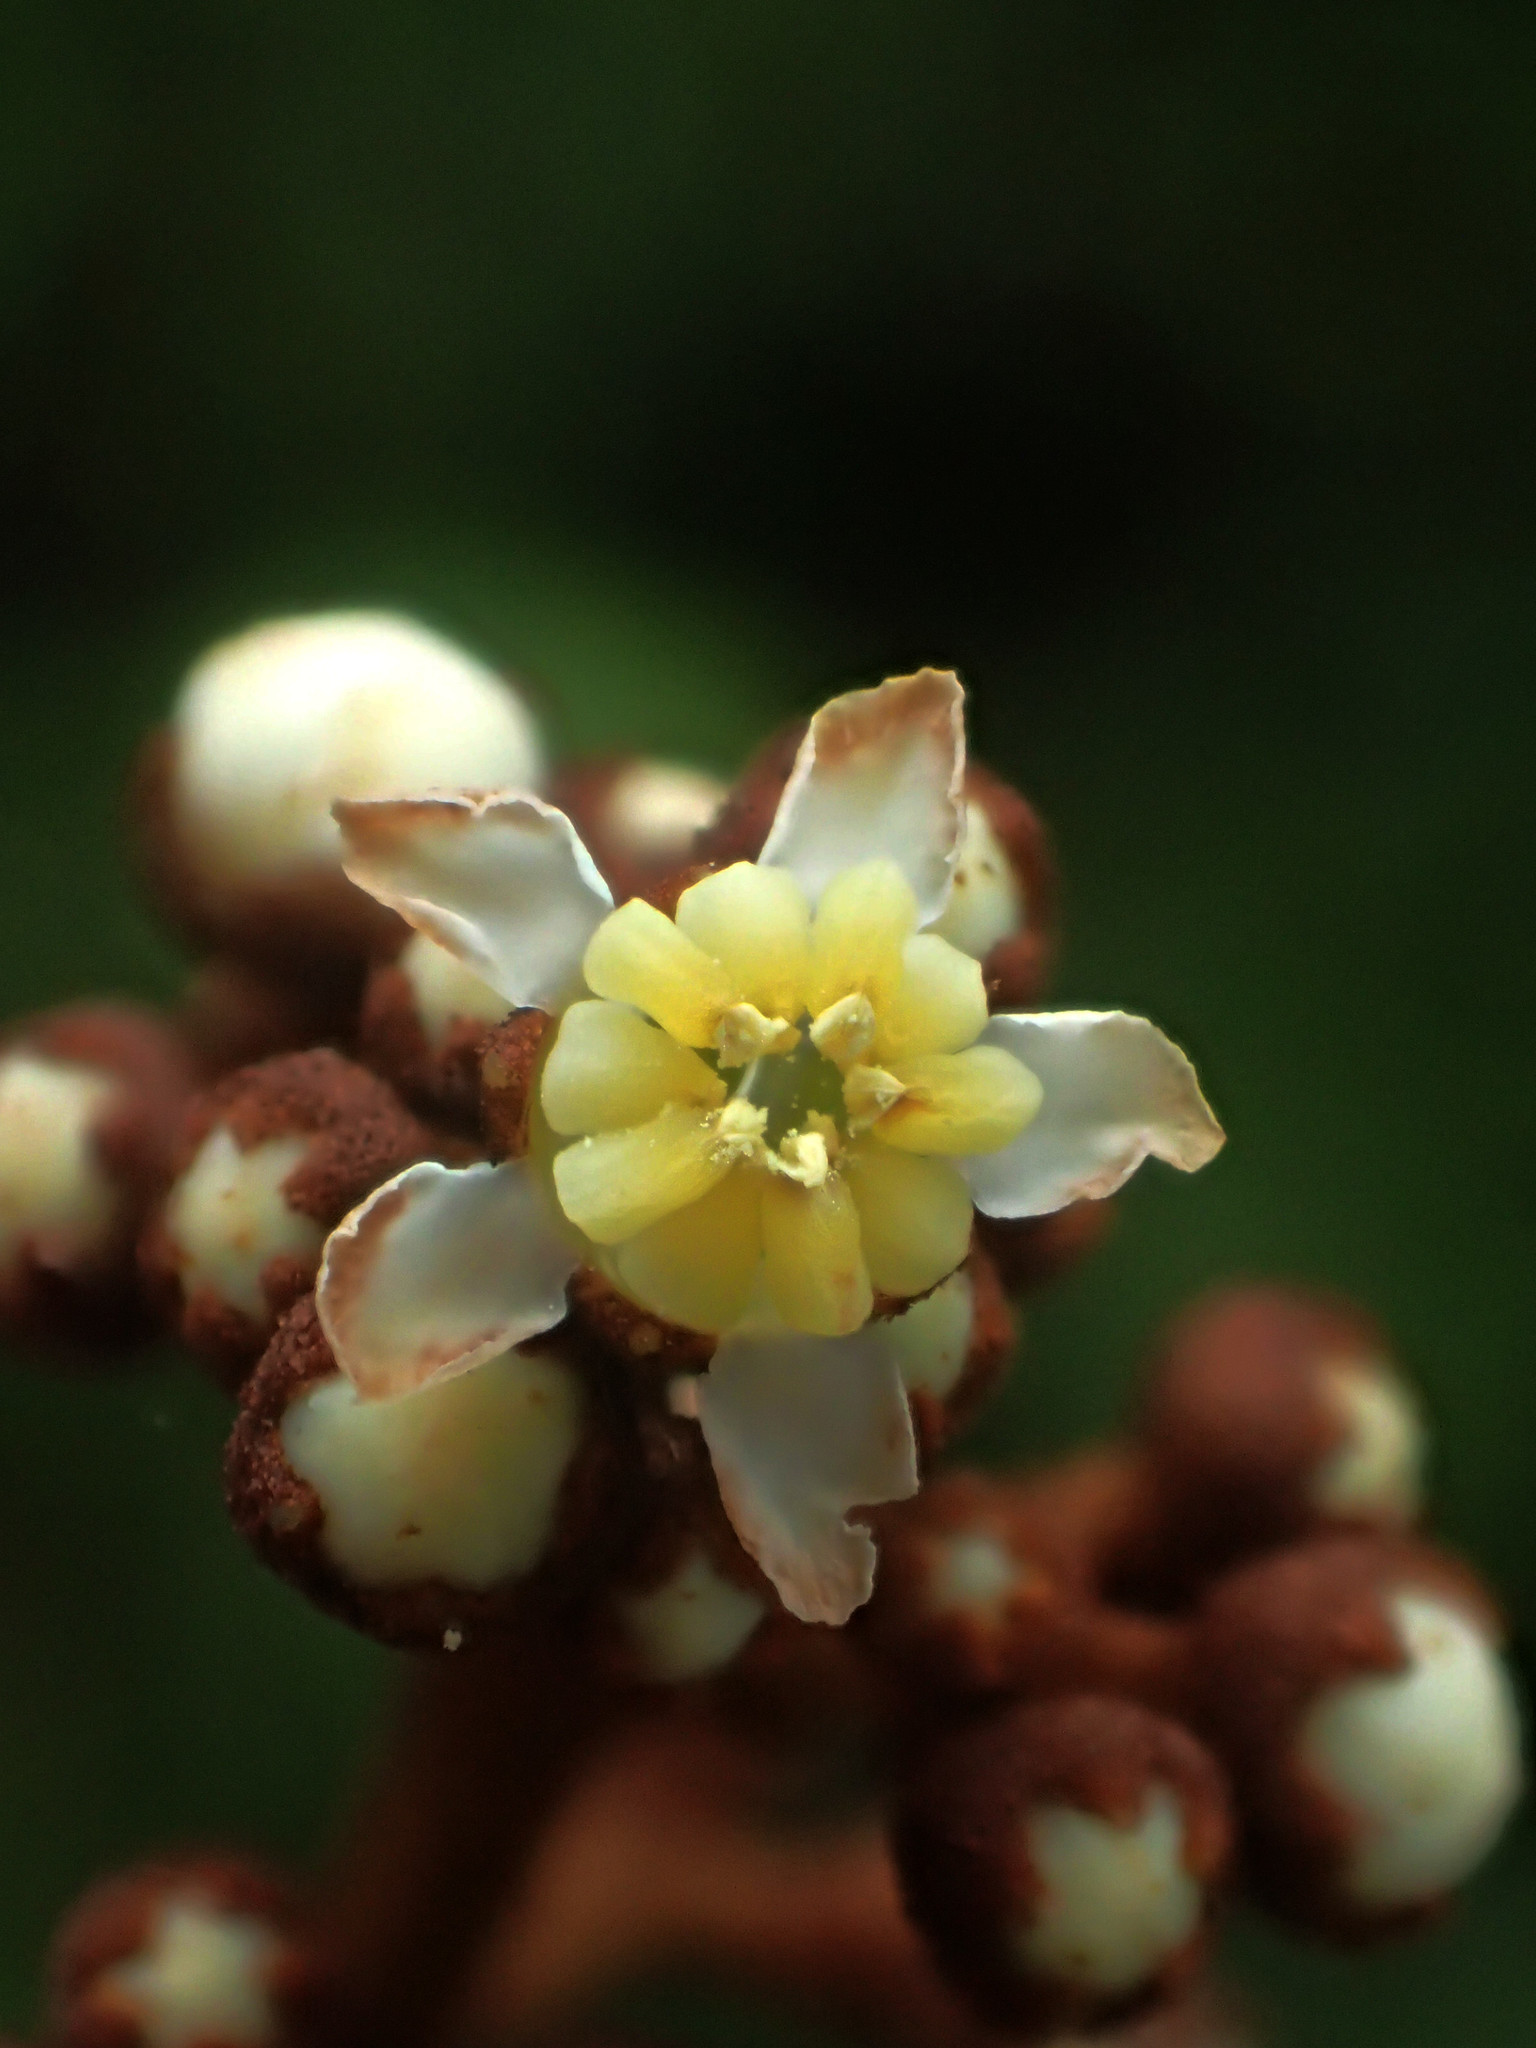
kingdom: Plantae
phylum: Tracheophyta
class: Magnoliopsida
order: Myrtales
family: Melastomataceae
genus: Astronia
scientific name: Astronia ferruginea
